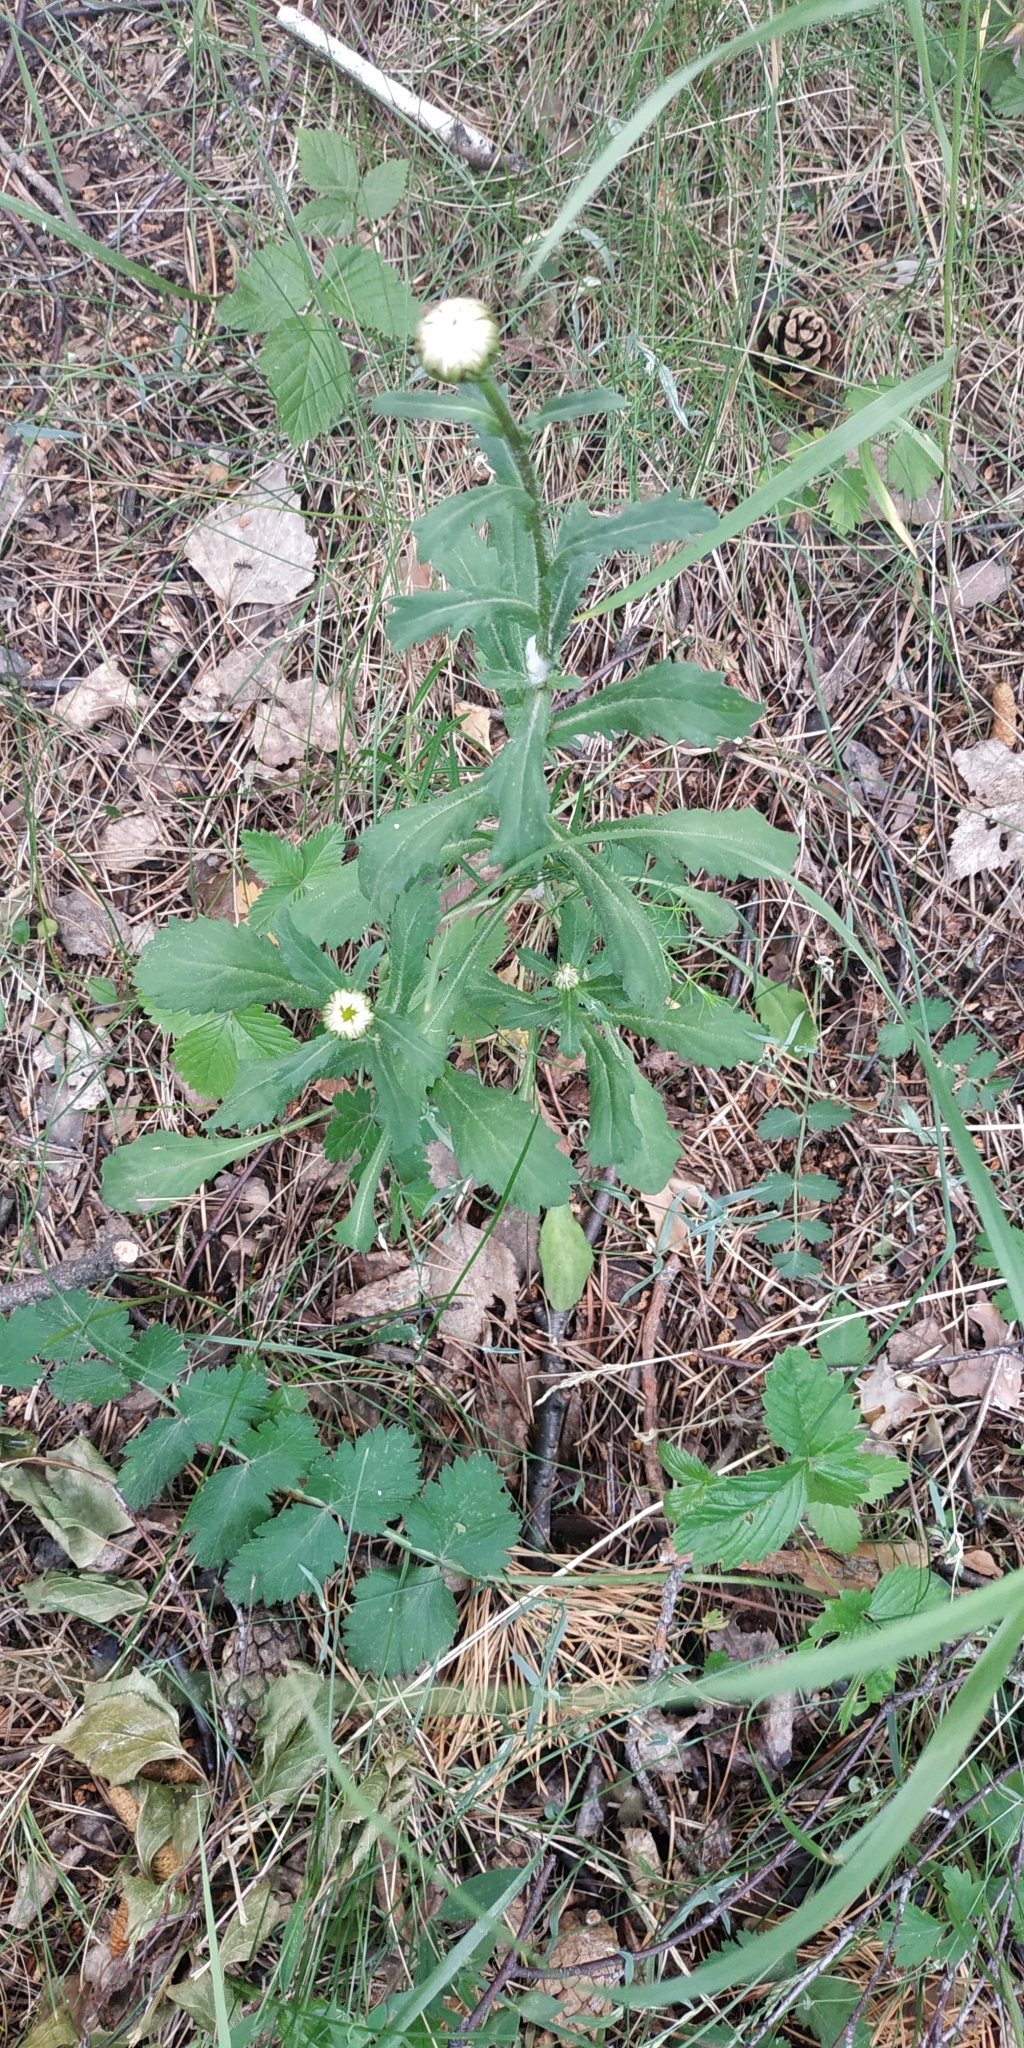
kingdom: Plantae
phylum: Tracheophyta
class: Magnoliopsida
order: Asterales
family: Asteraceae
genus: Leucanthemum
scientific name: Leucanthemum ircutianum
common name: Daisy
